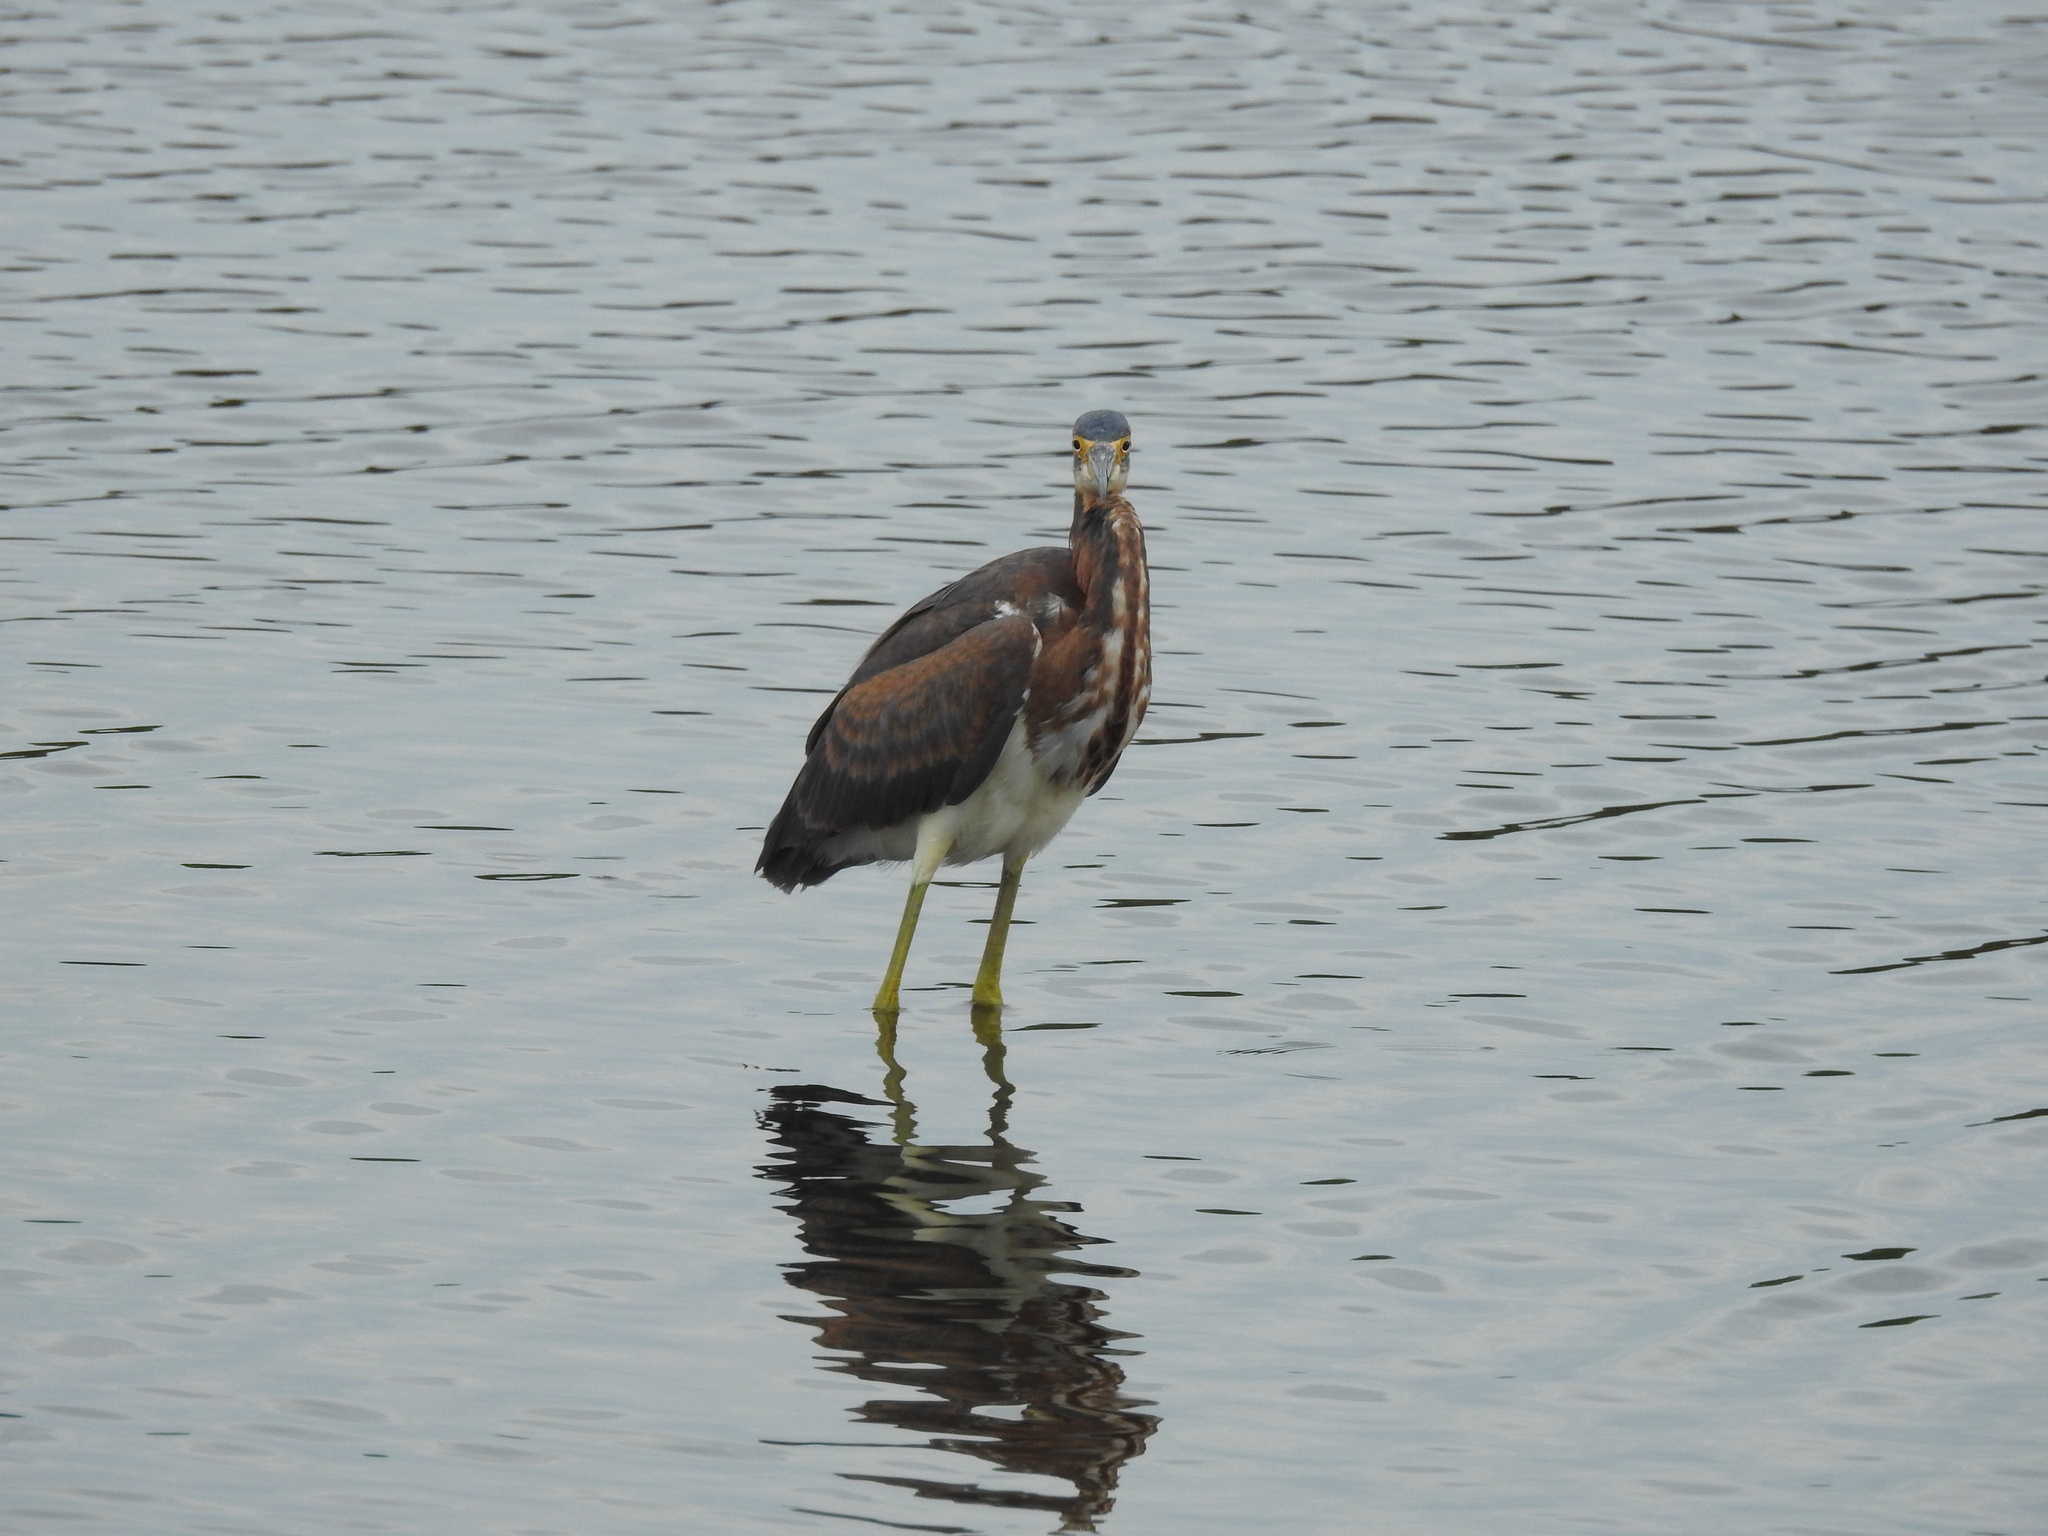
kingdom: Animalia
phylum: Chordata
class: Aves
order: Pelecaniformes
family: Ardeidae
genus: Egretta
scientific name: Egretta tricolor
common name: Tricolored heron
